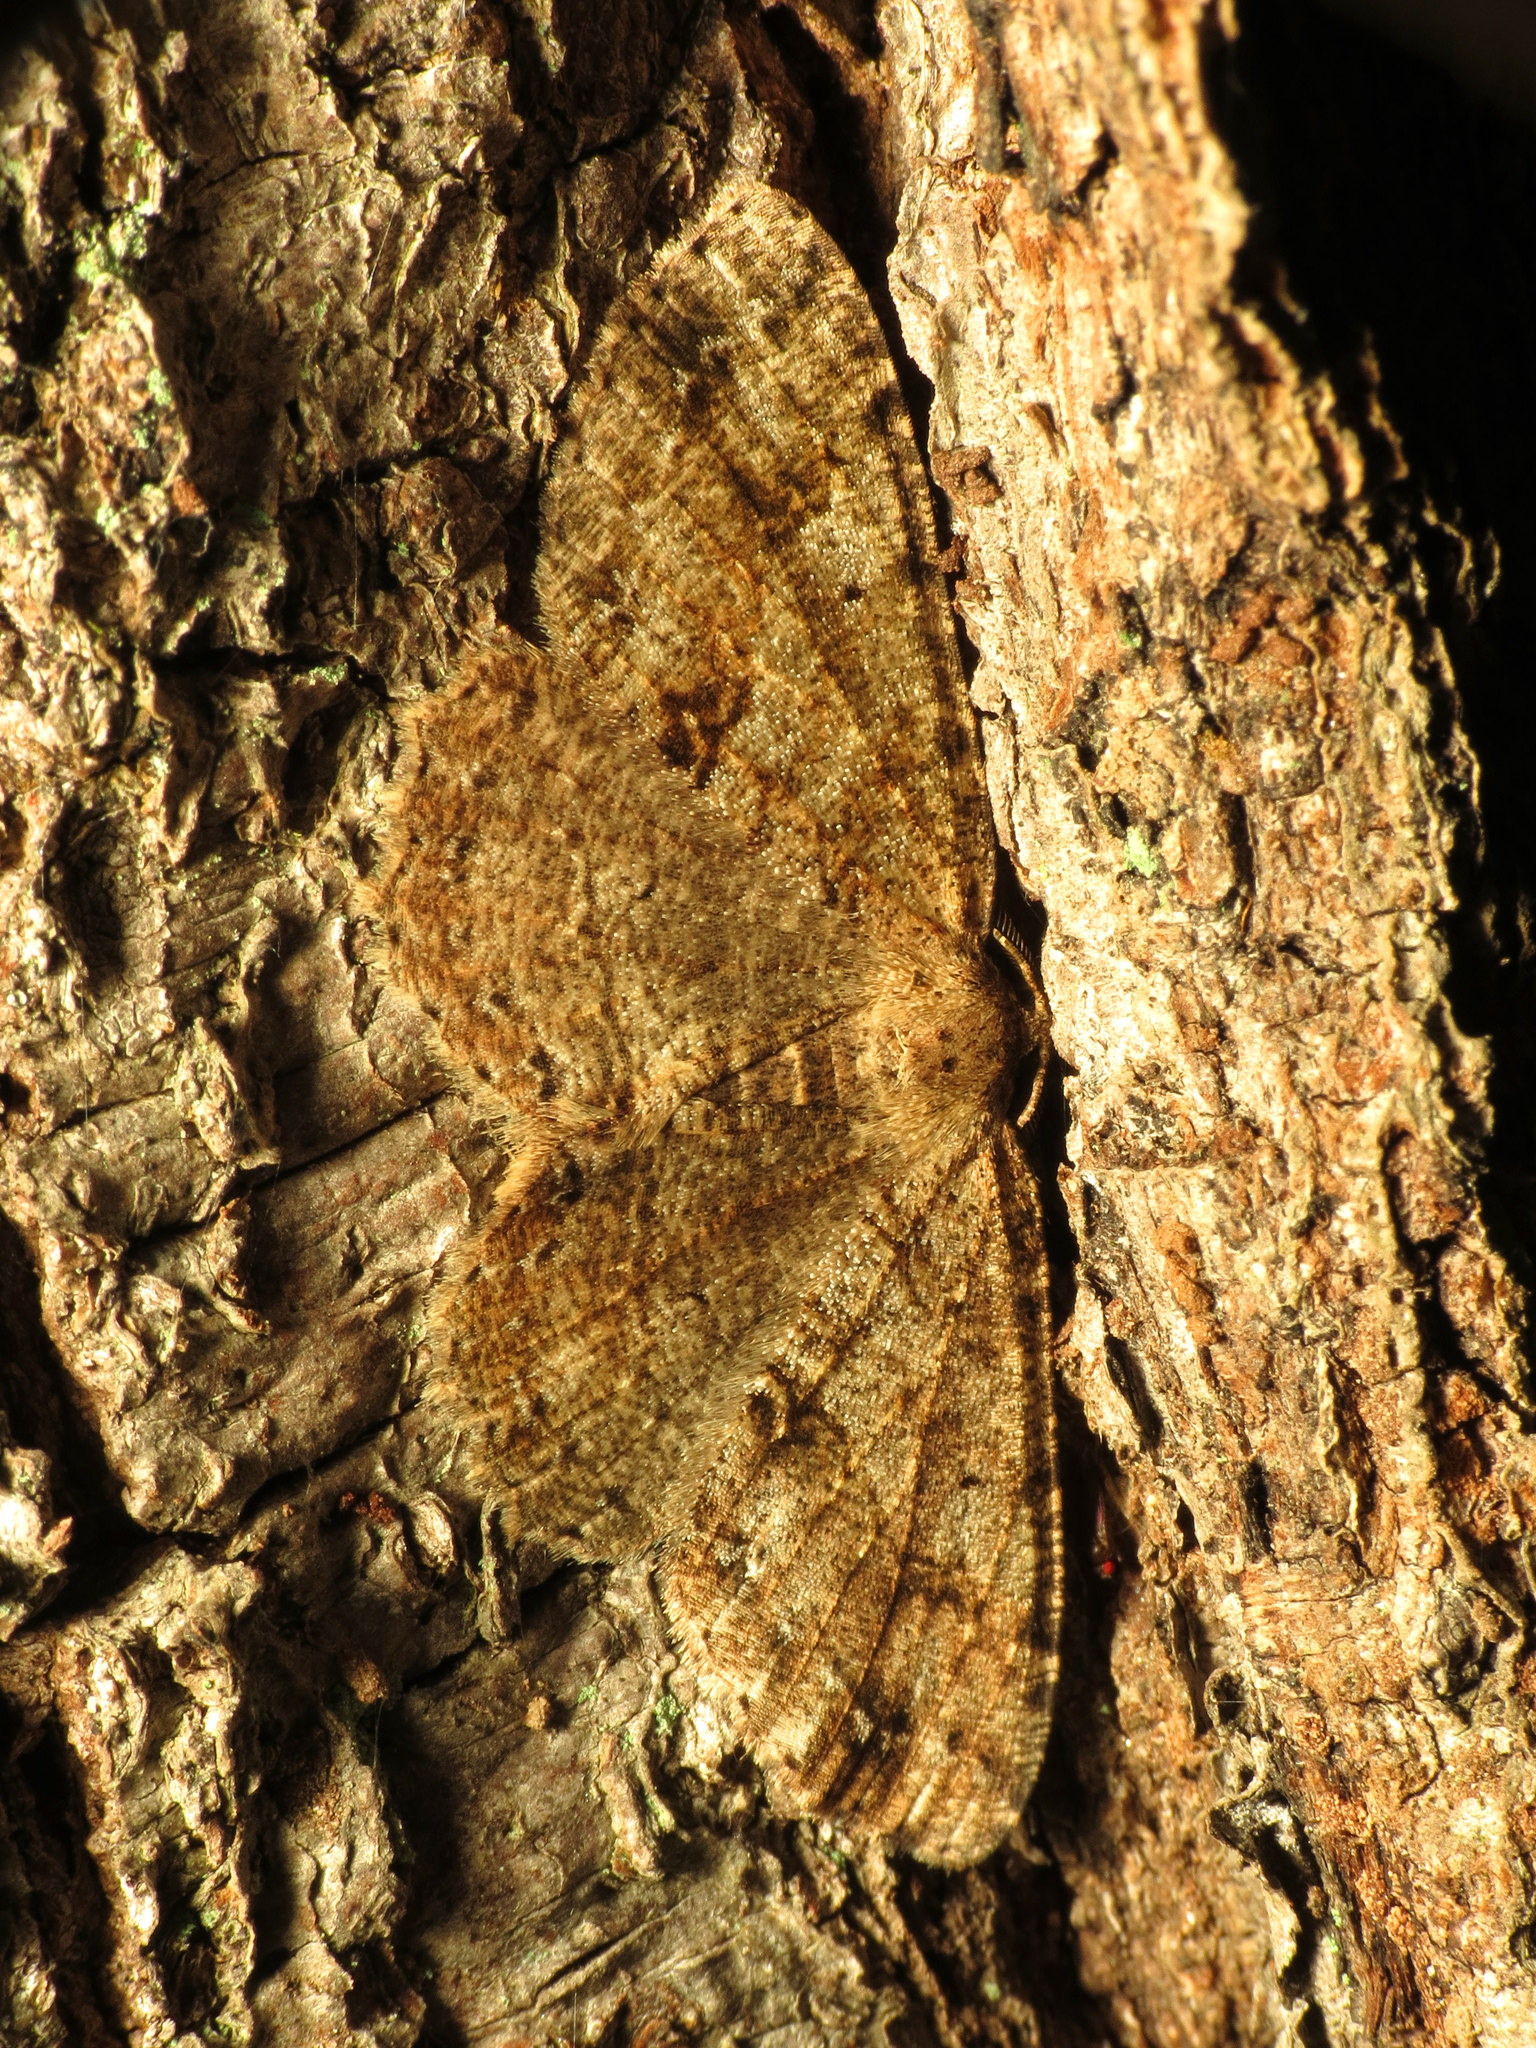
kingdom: Animalia
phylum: Arthropoda
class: Insecta
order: Lepidoptera
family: Geometridae
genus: Melanolophia
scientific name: Melanolophia signataria
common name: Signate melanolophia
